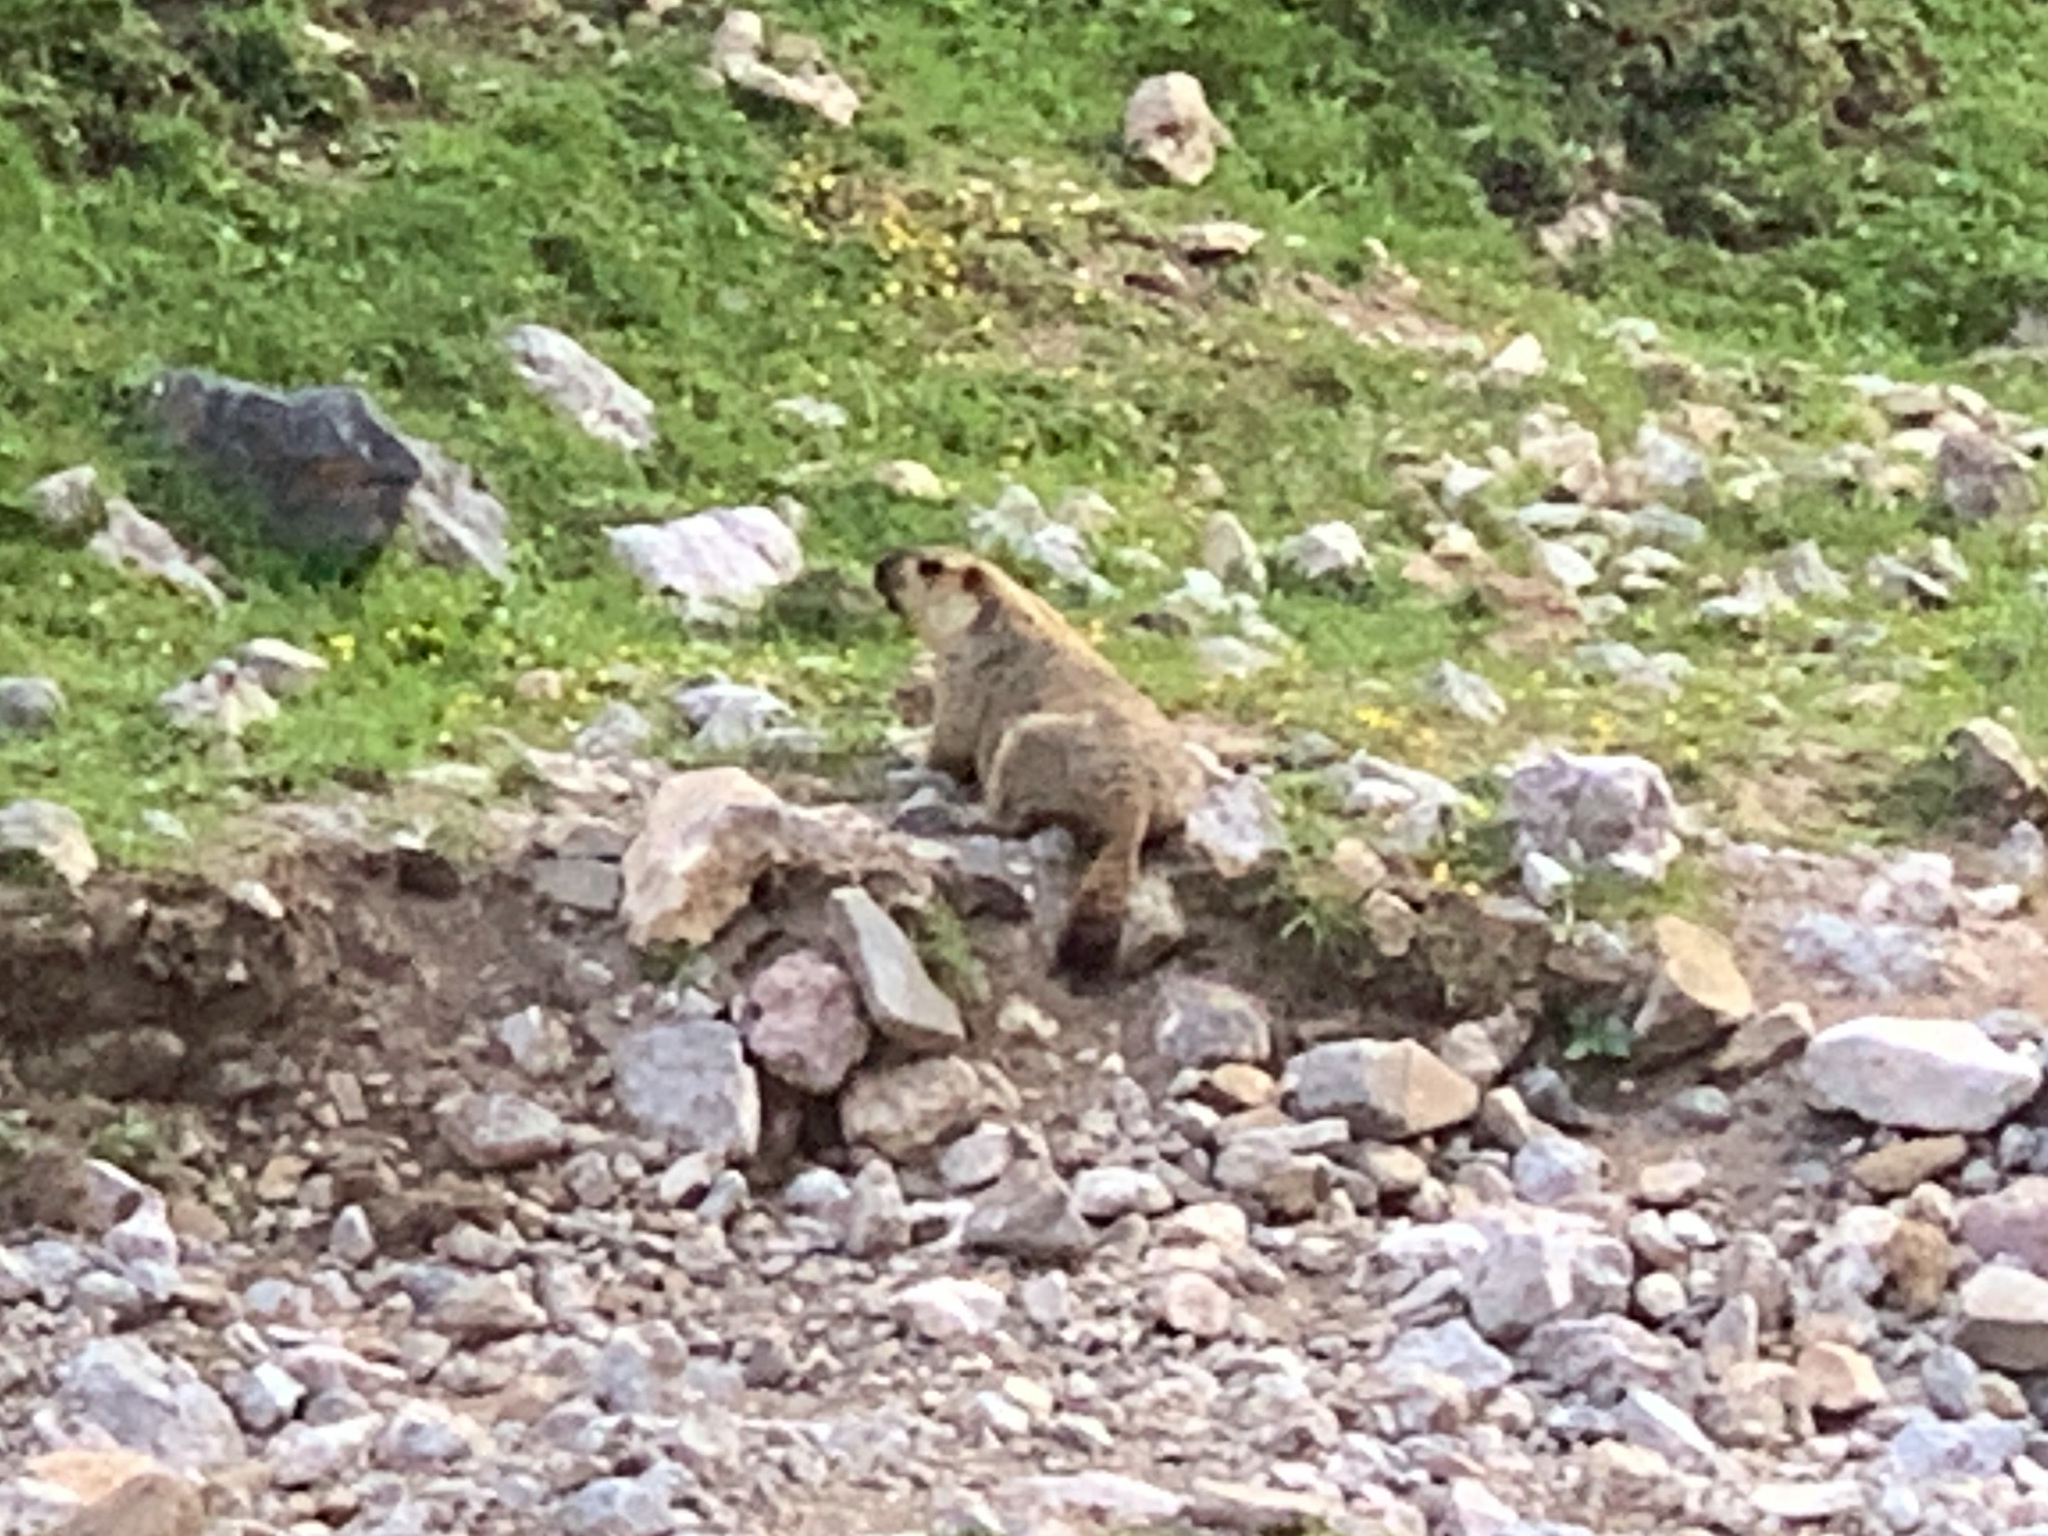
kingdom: Animalia
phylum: Chordata
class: Mammalia
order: Rodentia
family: Sciuridae
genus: Marmota
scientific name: Marmota himalayana
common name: Himalayan marmot
